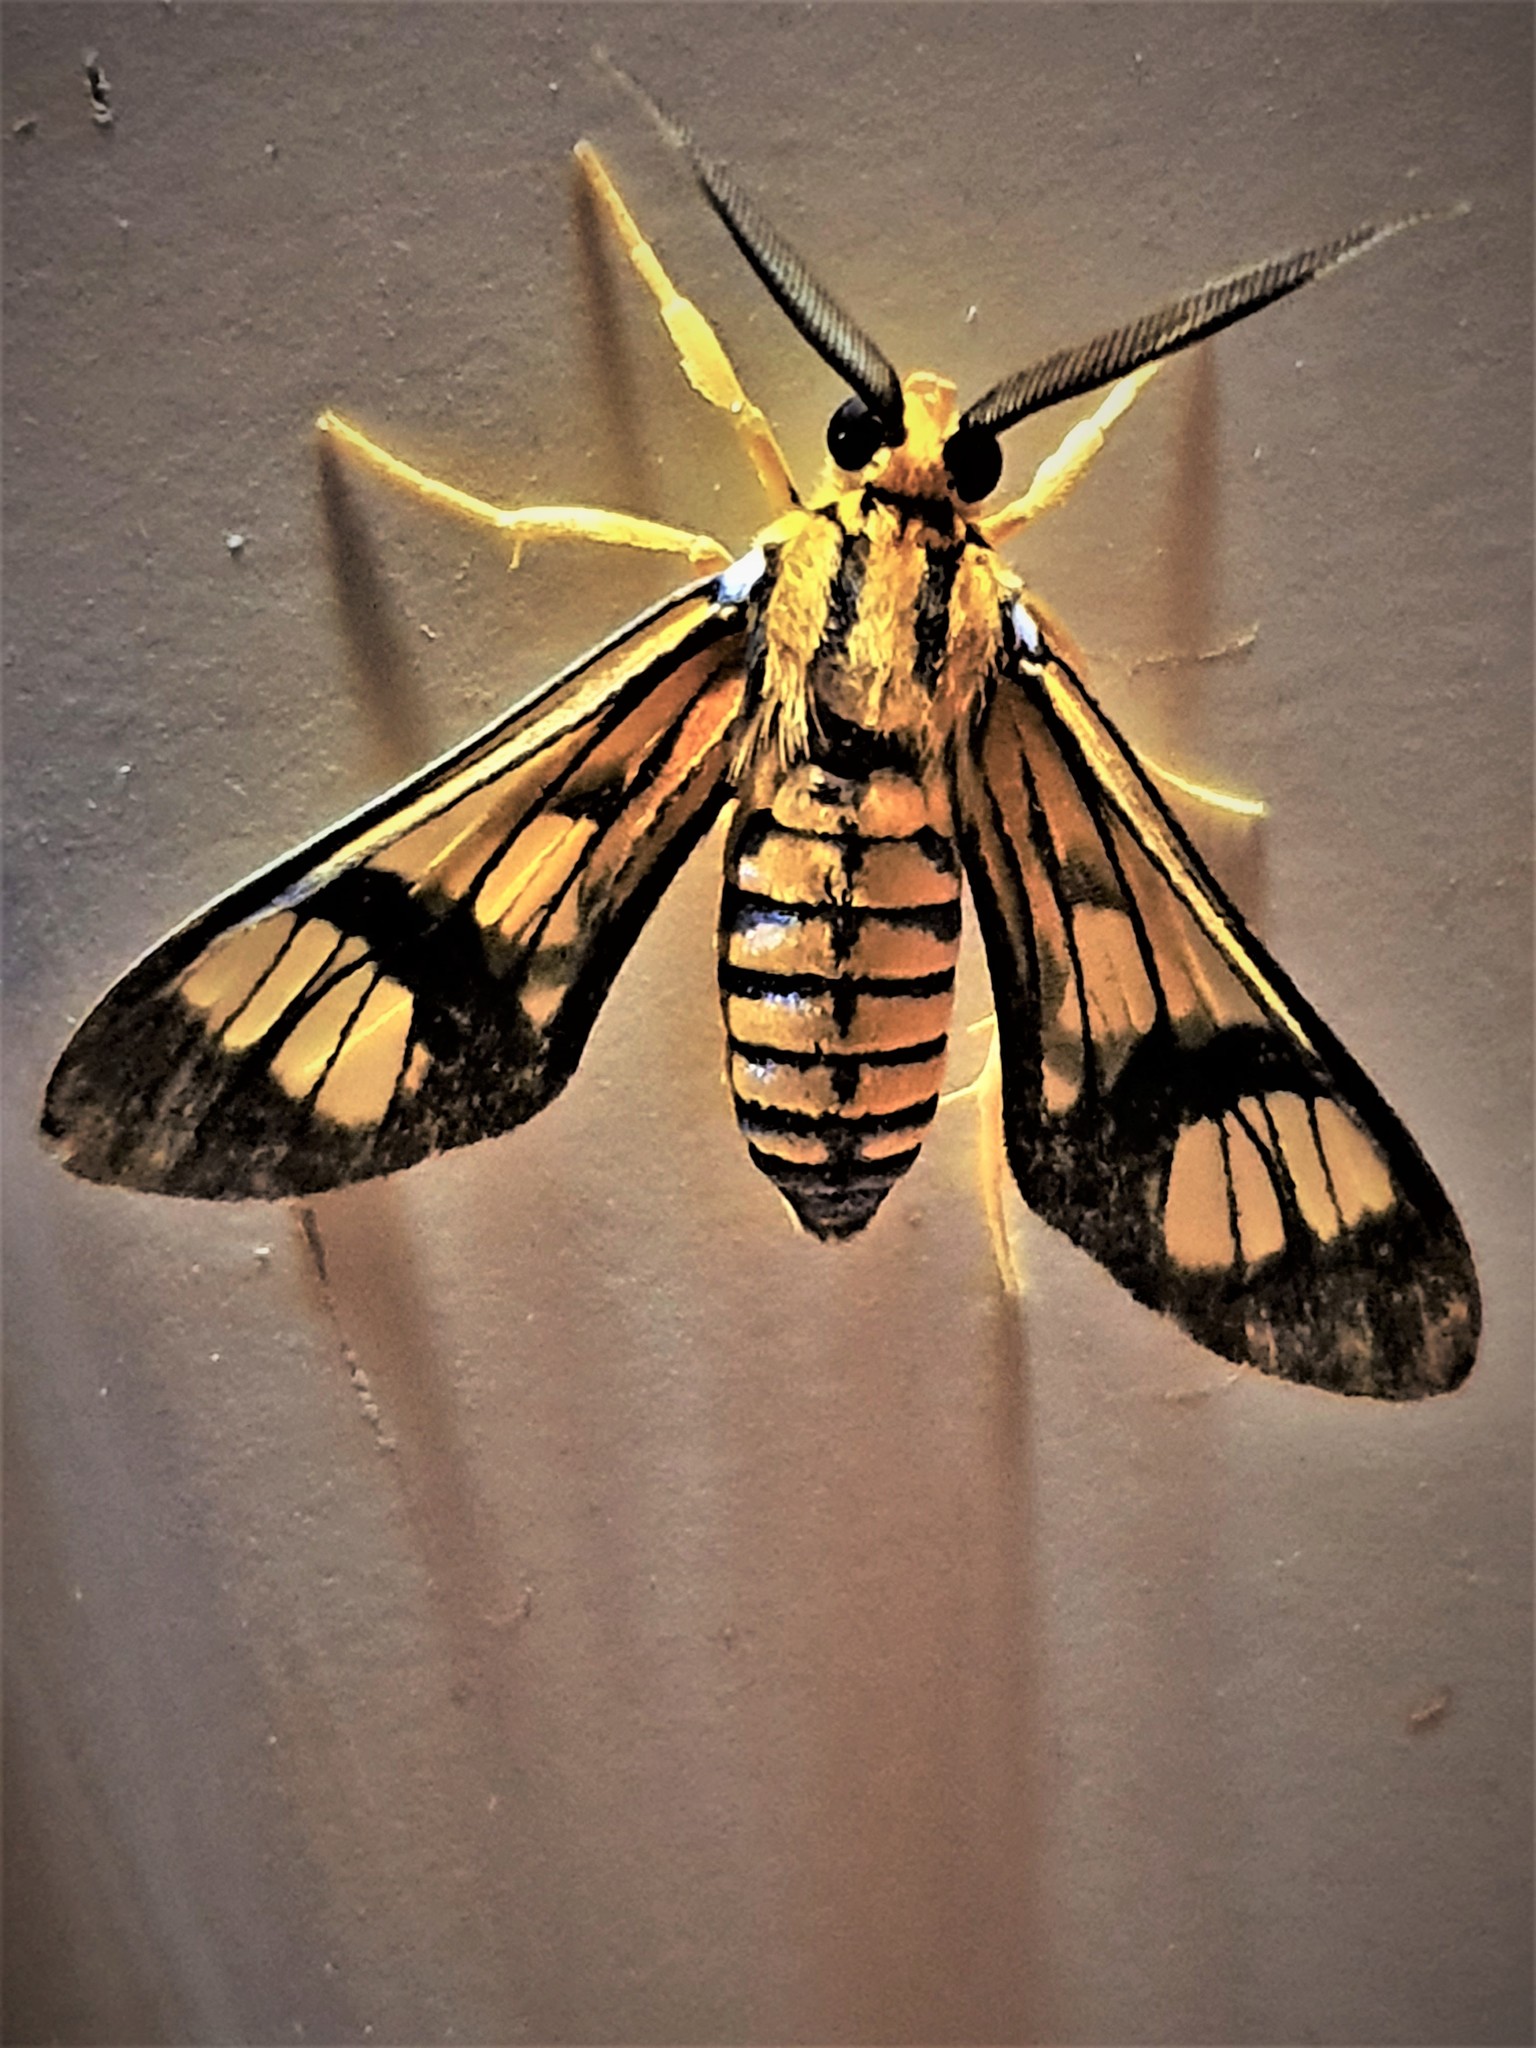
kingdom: Animalia
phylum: Arthropoda
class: Insecta
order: Lepidoptera
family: Erebidae
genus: Leucotmemis
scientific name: Leucotmemis torrida
